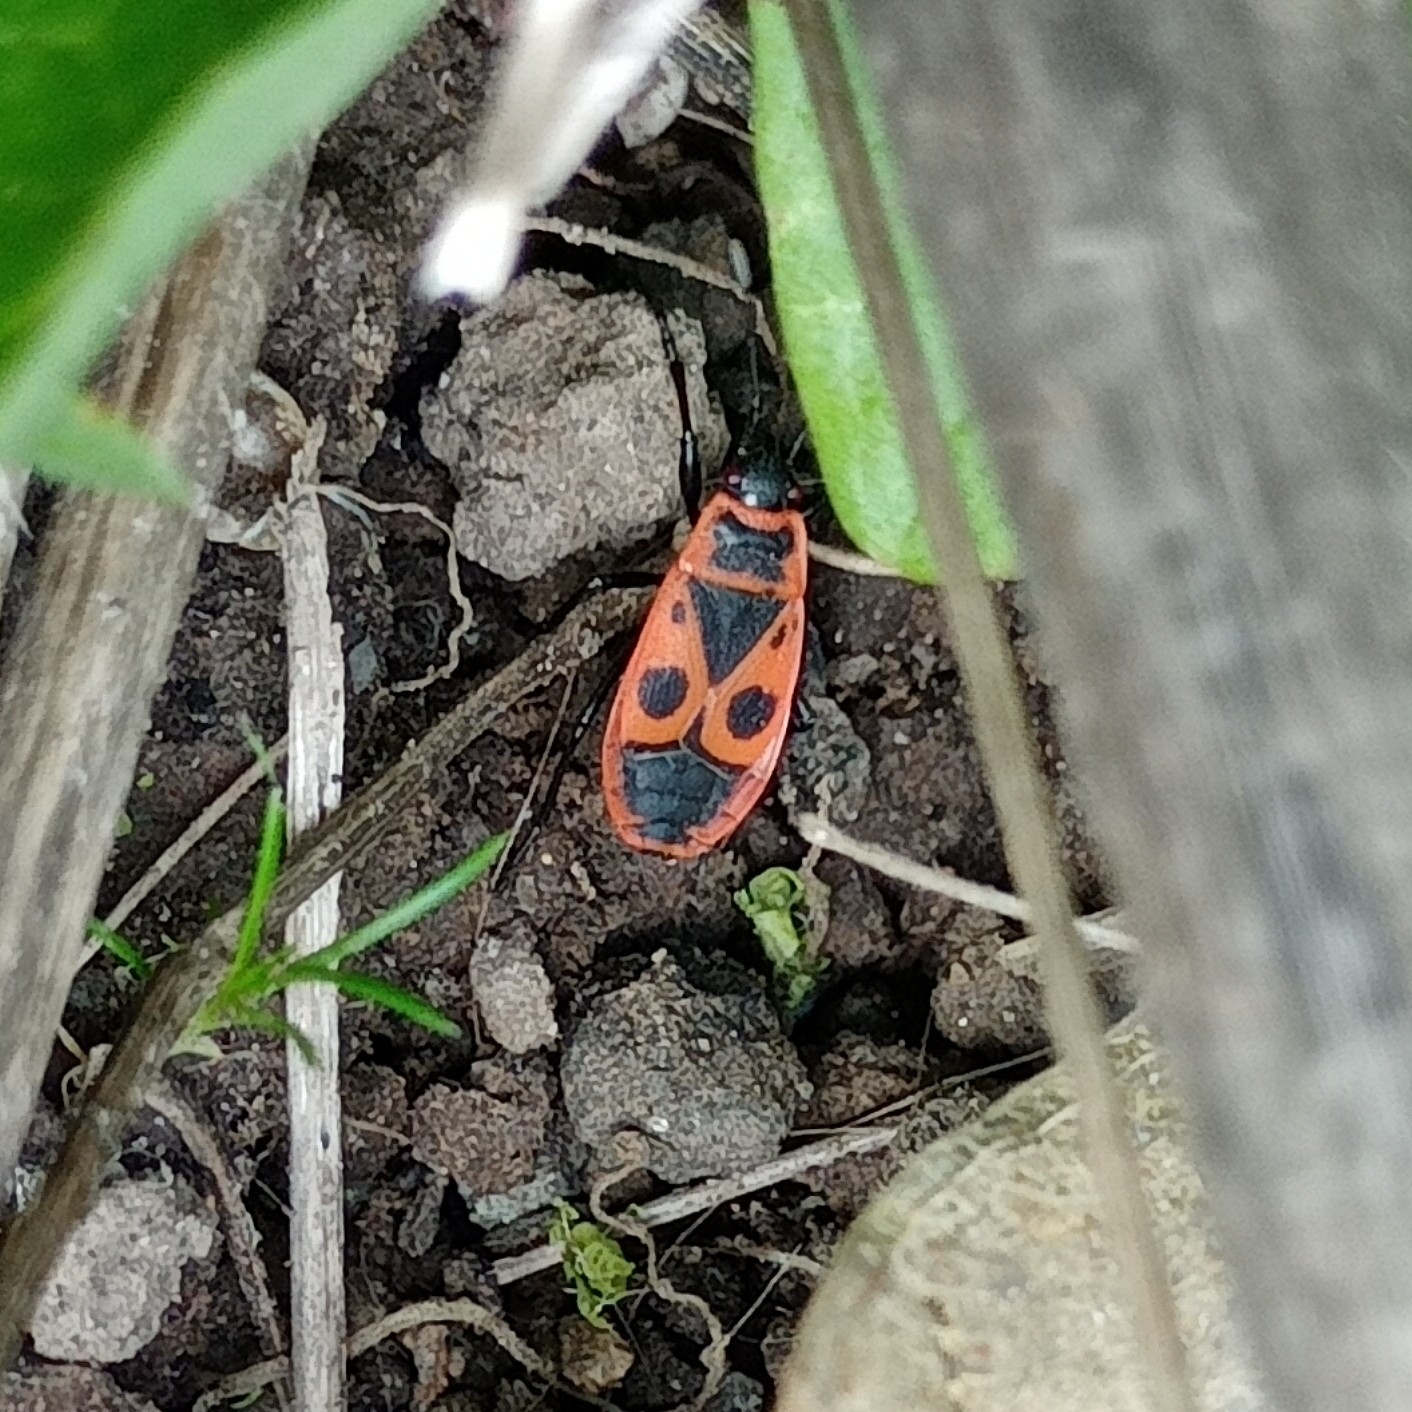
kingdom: Animalia
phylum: Arthropoda
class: Insecta
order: Hemiptera
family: Pyrrhocoridae
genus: Pyrrhocoris
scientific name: Pyrrhocoris apterus
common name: Firebug
